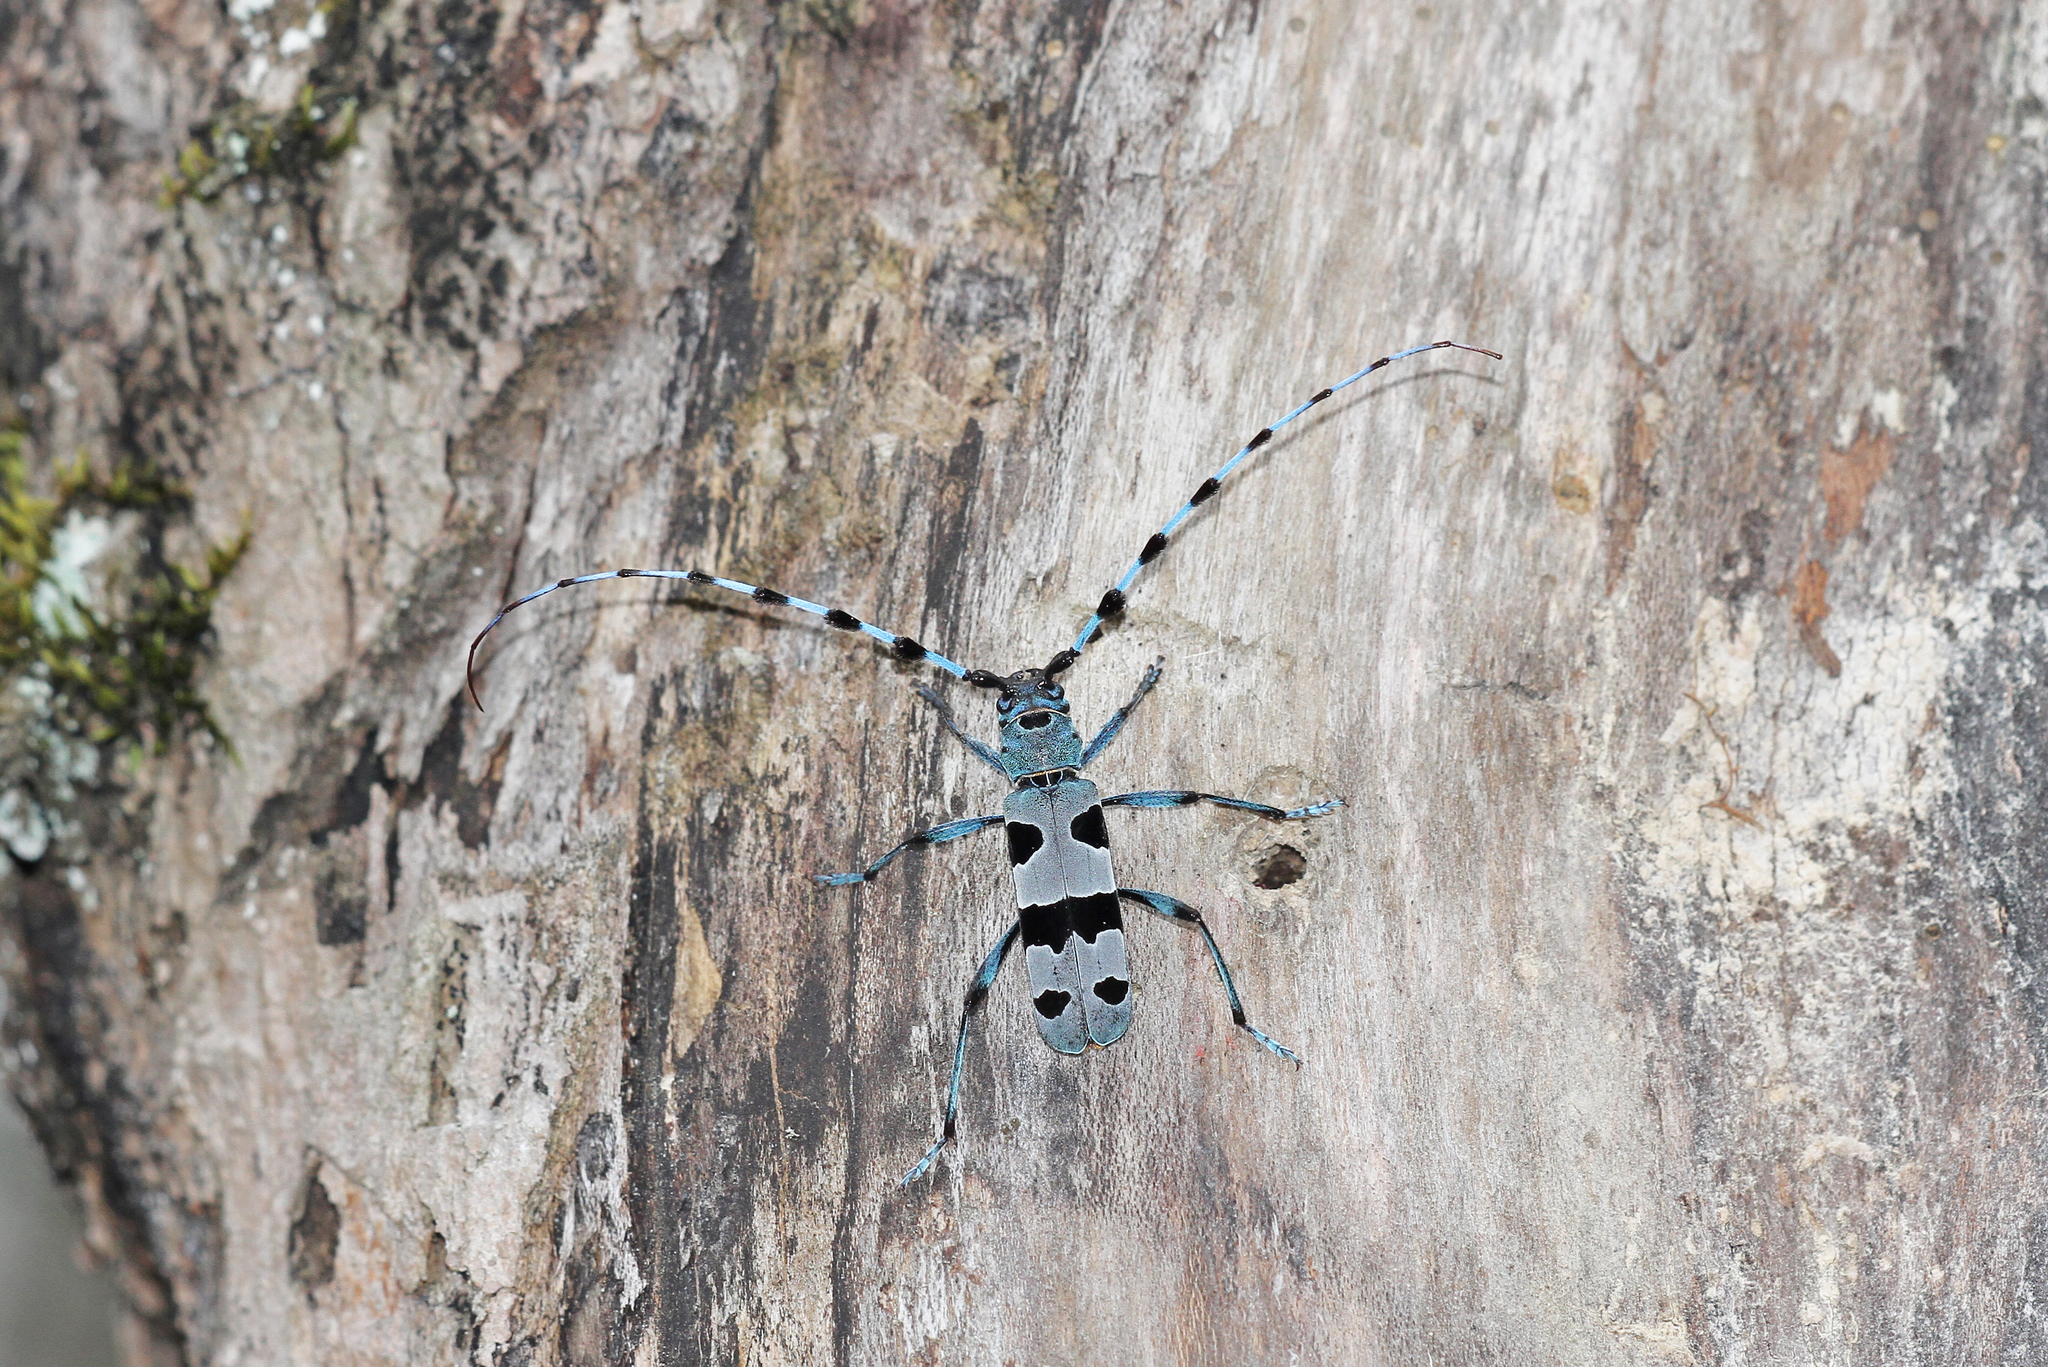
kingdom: Animalia
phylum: Arthropoda
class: Insecta
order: Coleoptera
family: Cerambycidae
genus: Rosalia
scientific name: Rosalia alpina
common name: Rosalia longicorn
